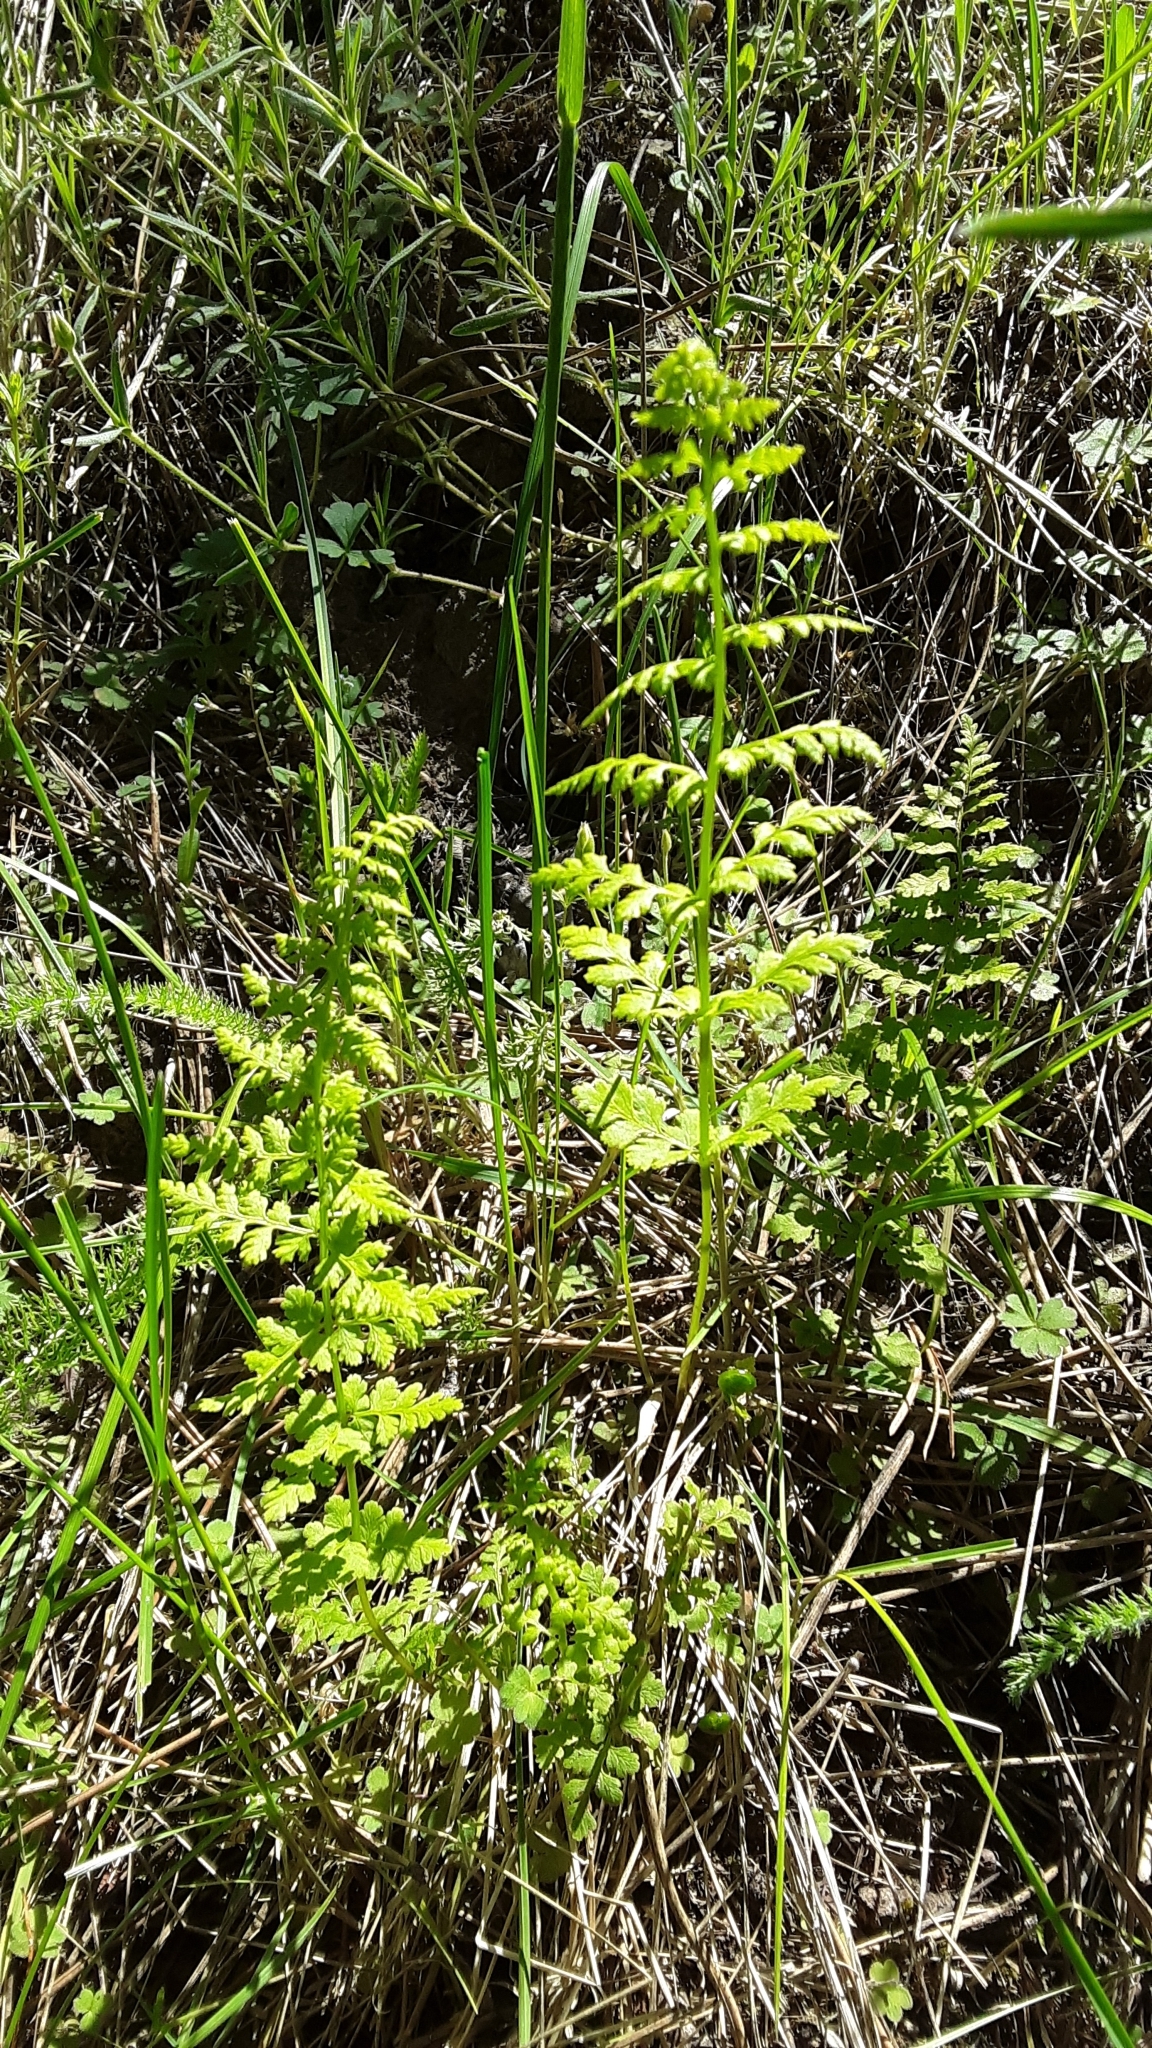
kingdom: Plantae
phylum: Tracheophyta
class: Polypodiopsida
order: Polypodiales
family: Cystopteridaceae
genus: Cystopteris
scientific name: Cystopteris fragilis
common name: Brittle bladder fern
